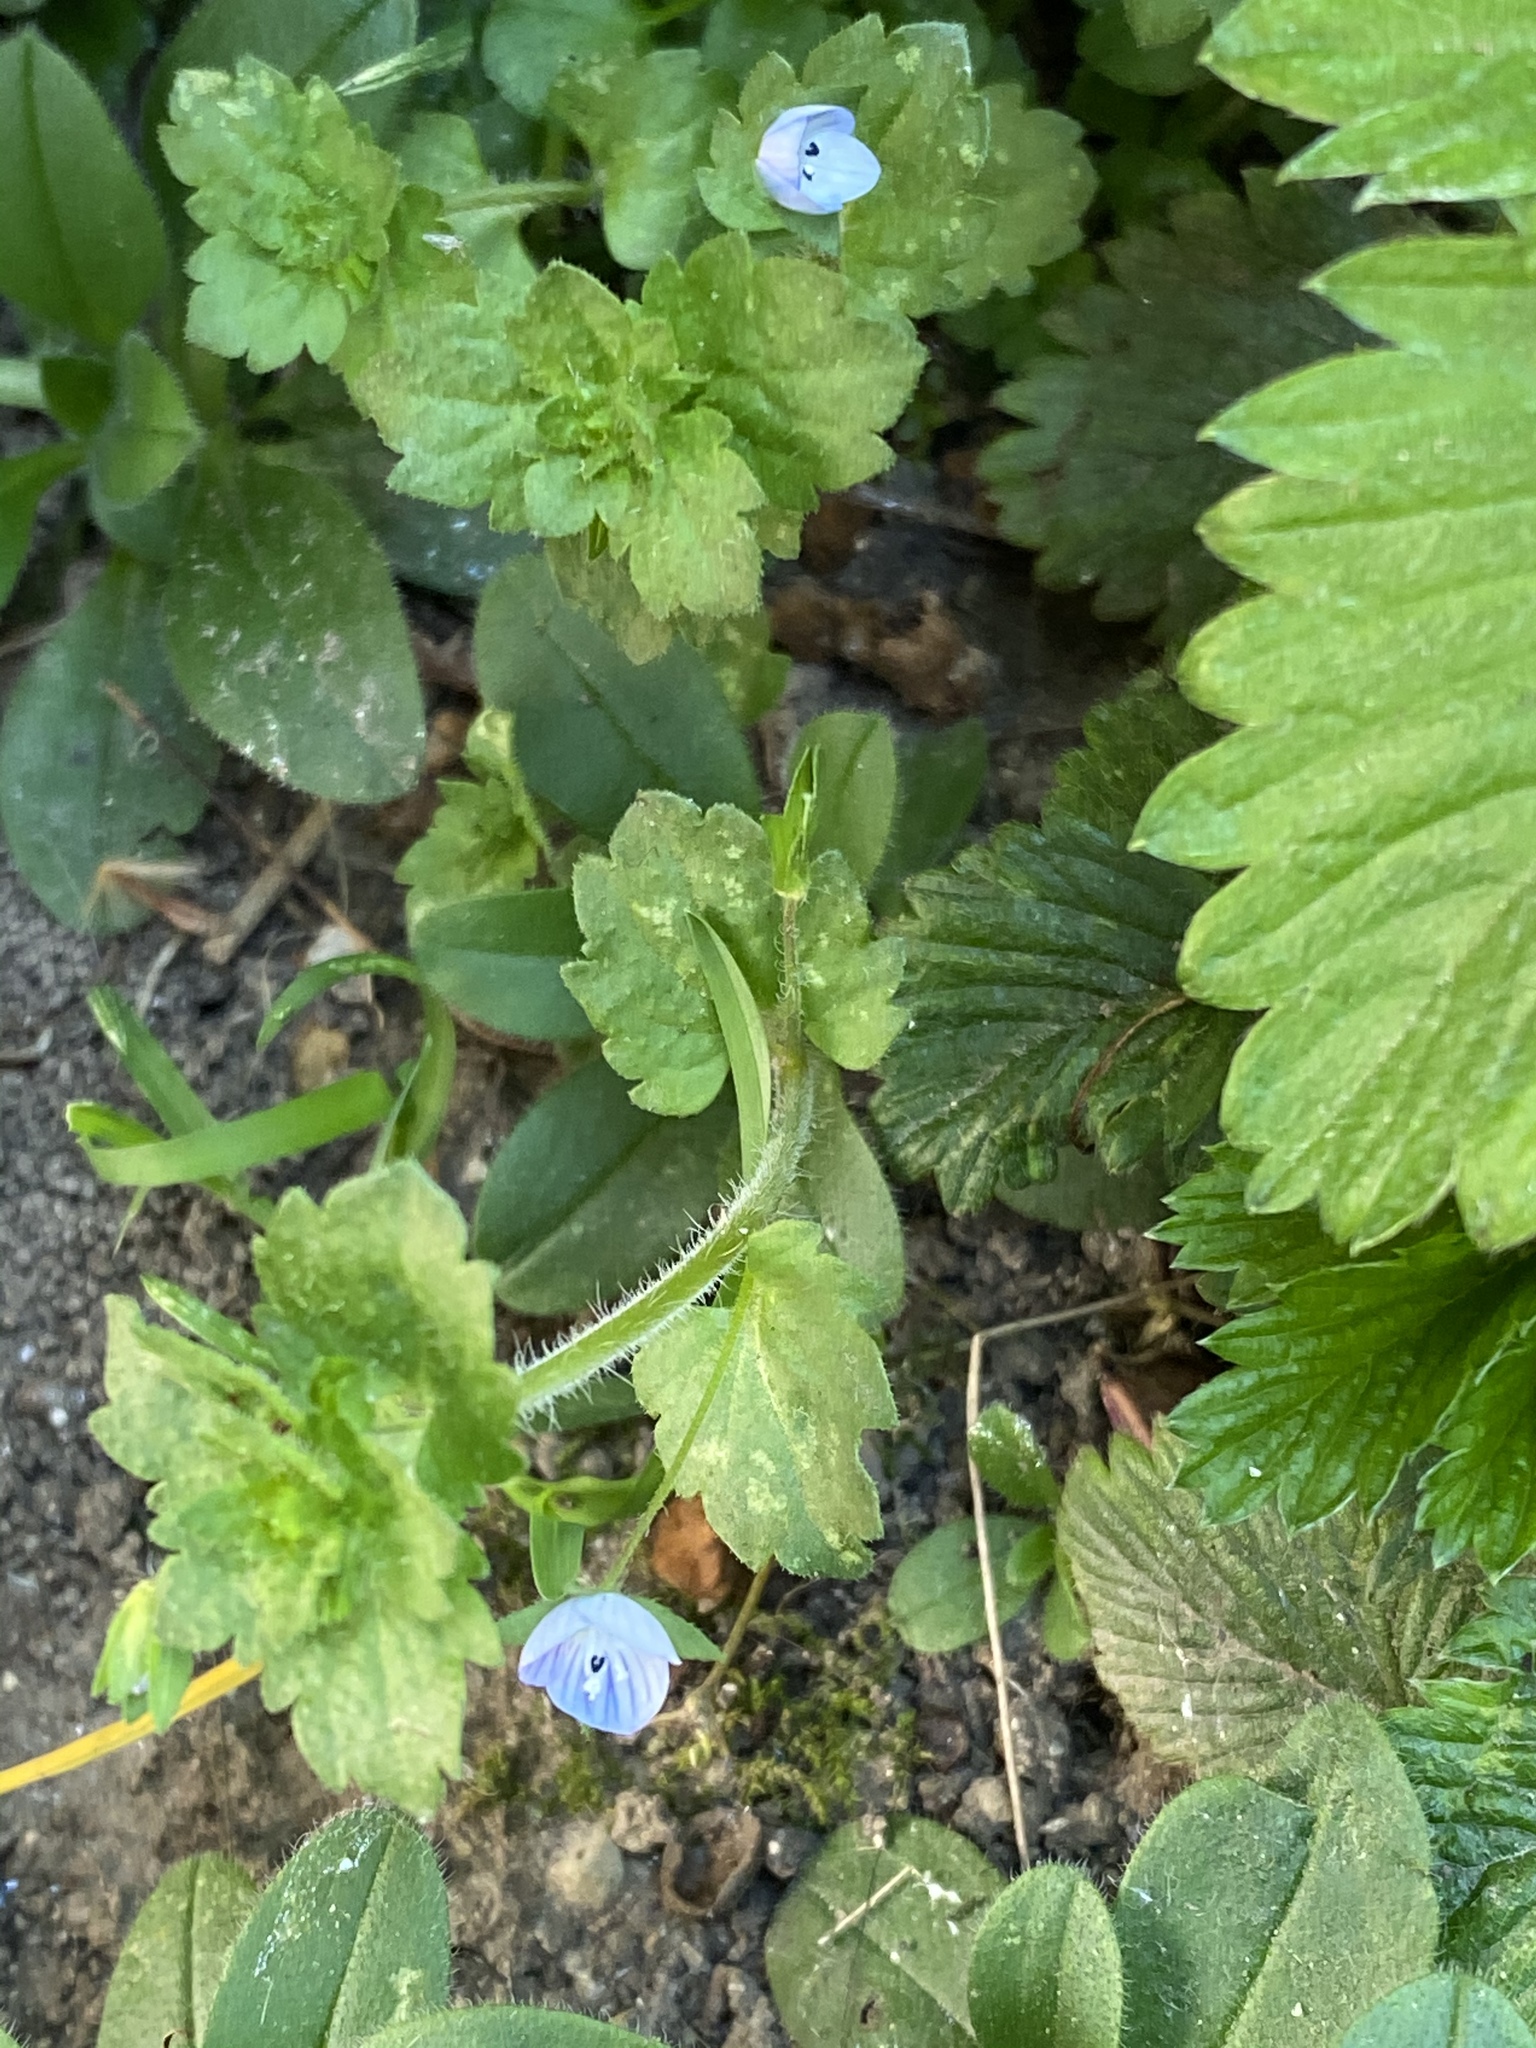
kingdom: Plantae
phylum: Tracheophyta
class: Magnoliopsida
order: Lamiales
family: Plantaginaceae
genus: Veronica
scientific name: Veronica persica
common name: Common field-speedwell
